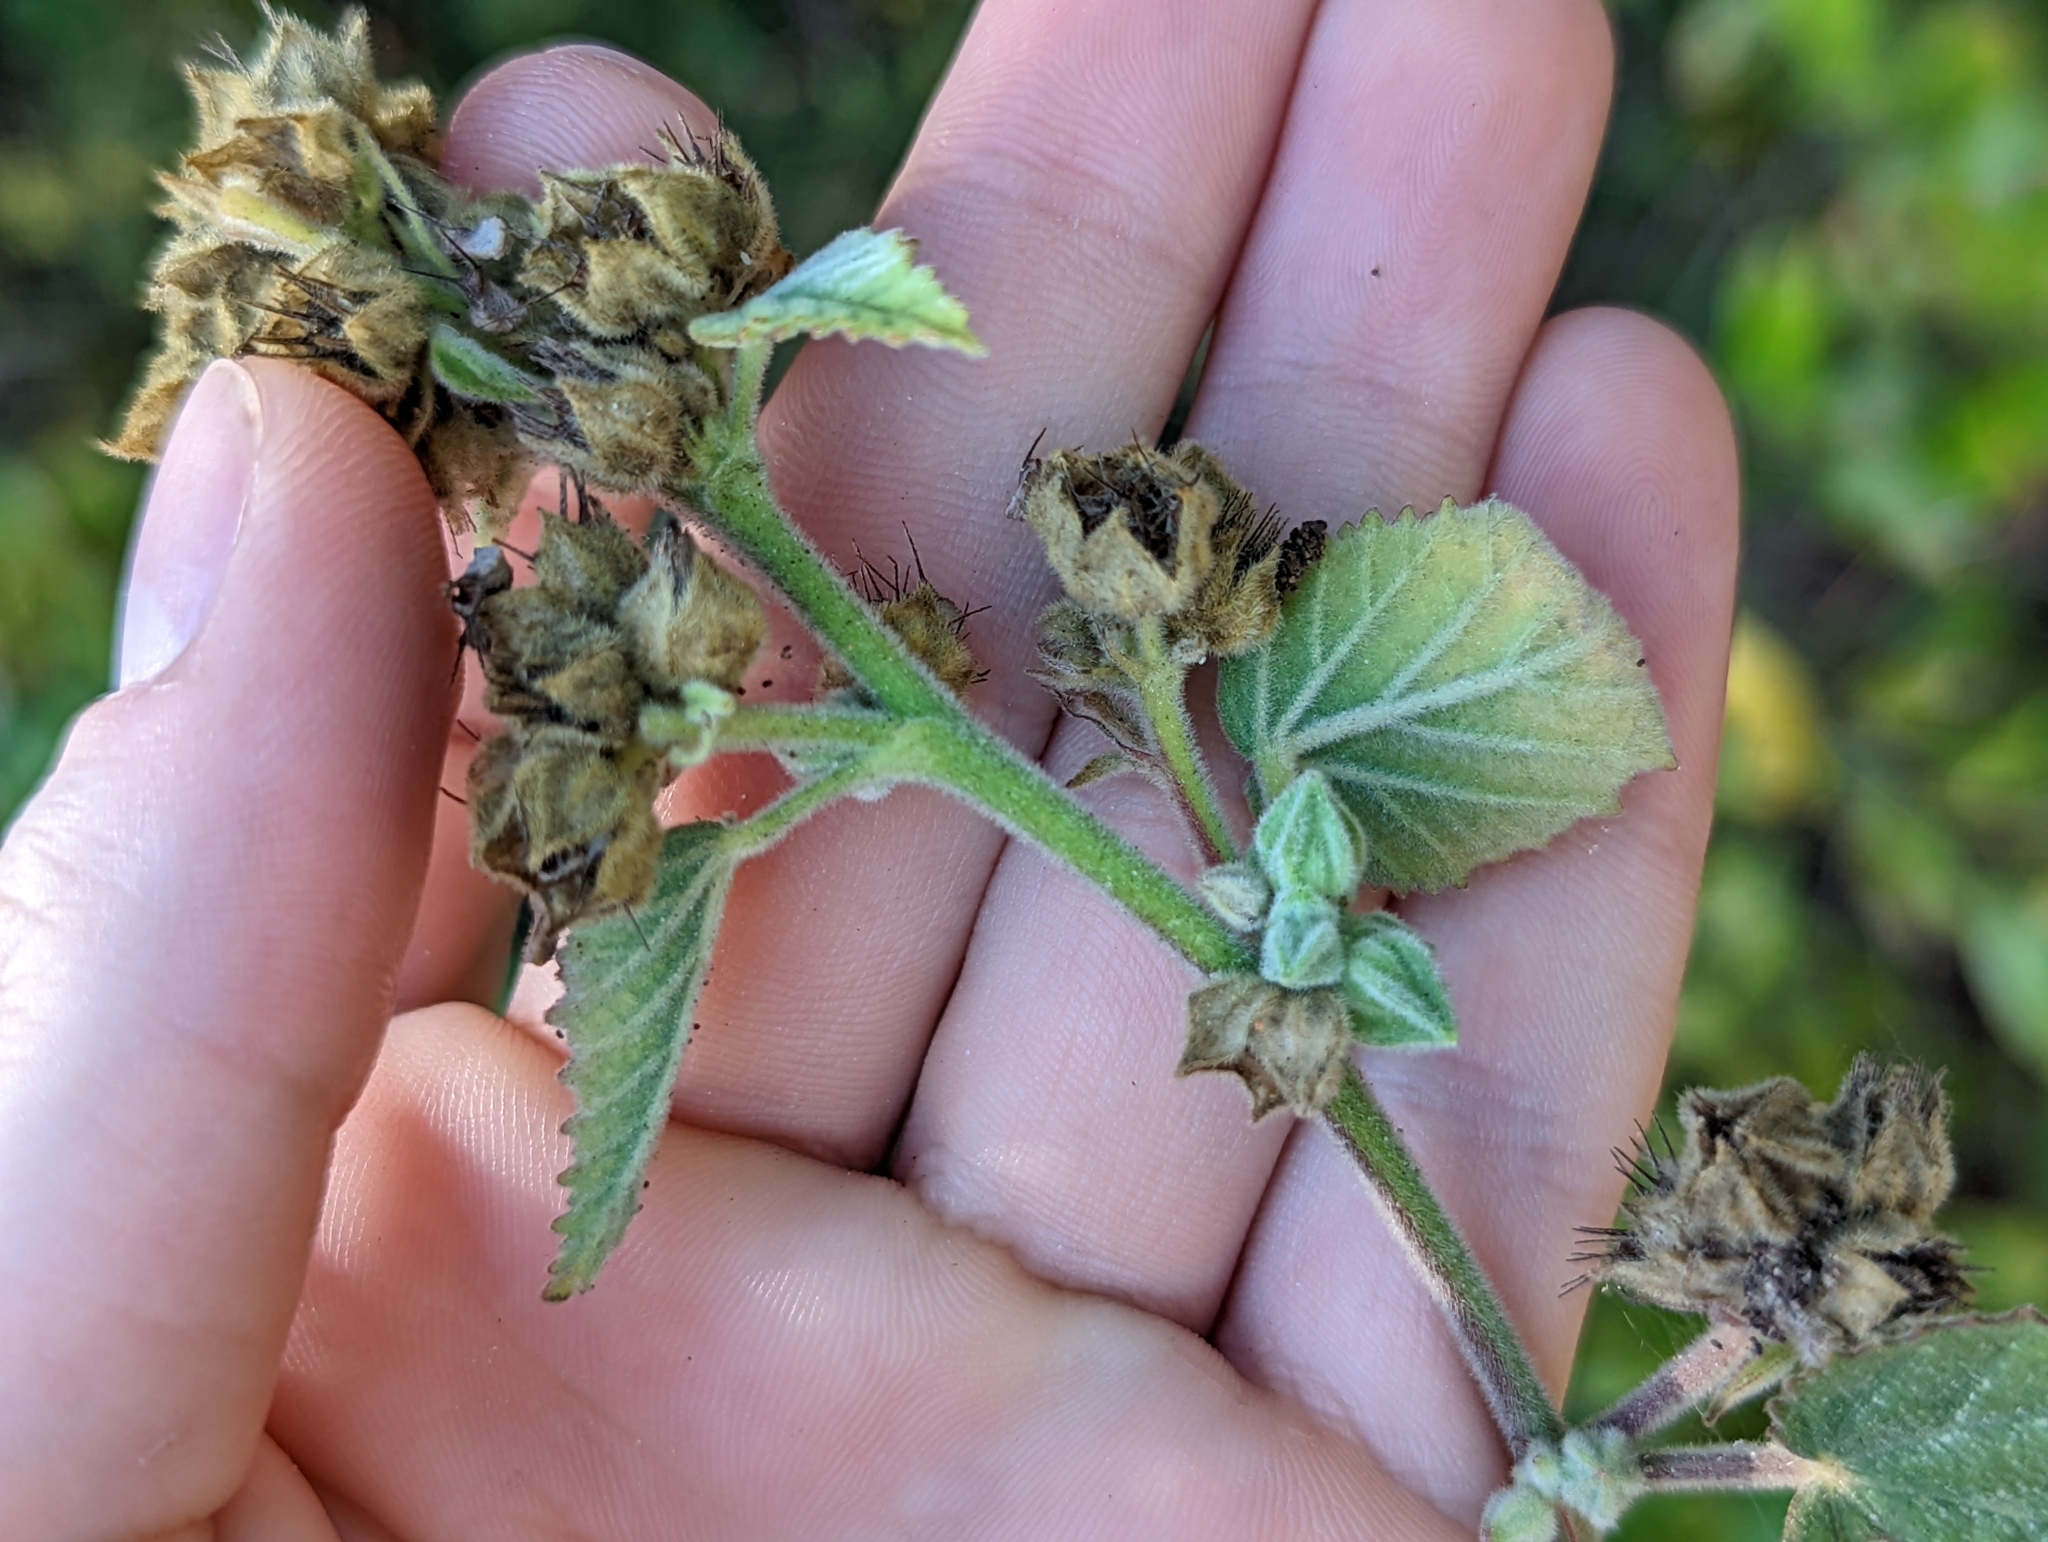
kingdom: Plantae
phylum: Tracheophyta
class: Magnoliopsida
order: Malvales
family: Malvaceae
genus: Sida
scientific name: Sida cordifolia
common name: Ilima
